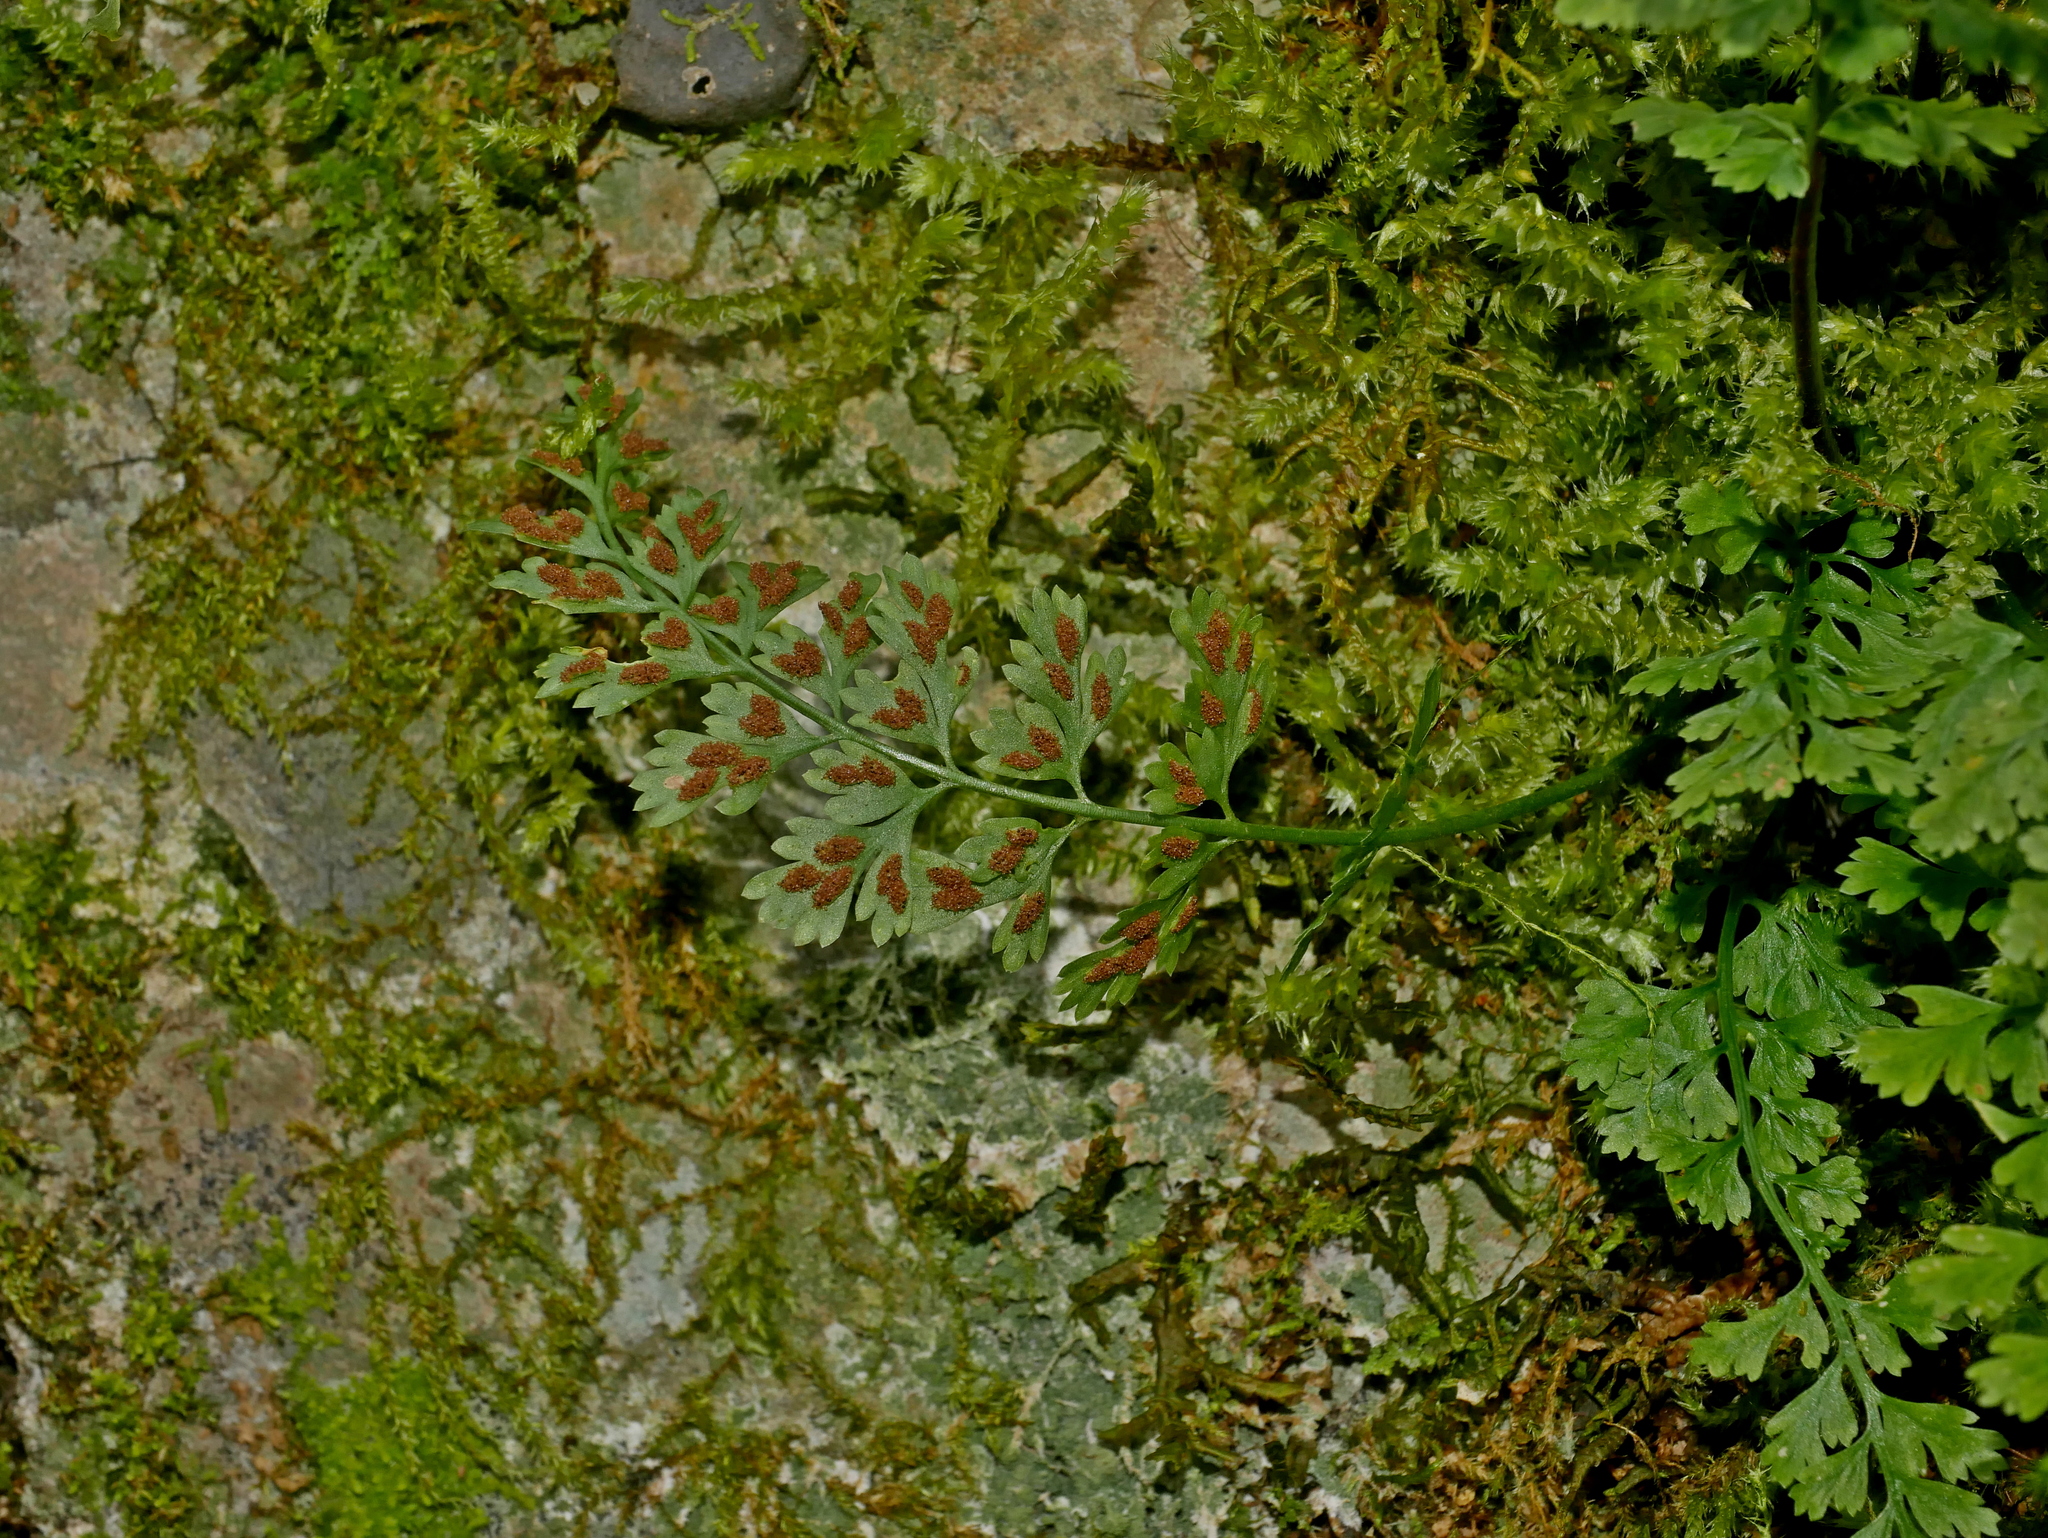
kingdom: Plantae
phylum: Tracheophyta
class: Polypodiopsida
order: Polypodiales
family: Aspleniaceae
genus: Asplenium
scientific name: Asplenium laciniatum
